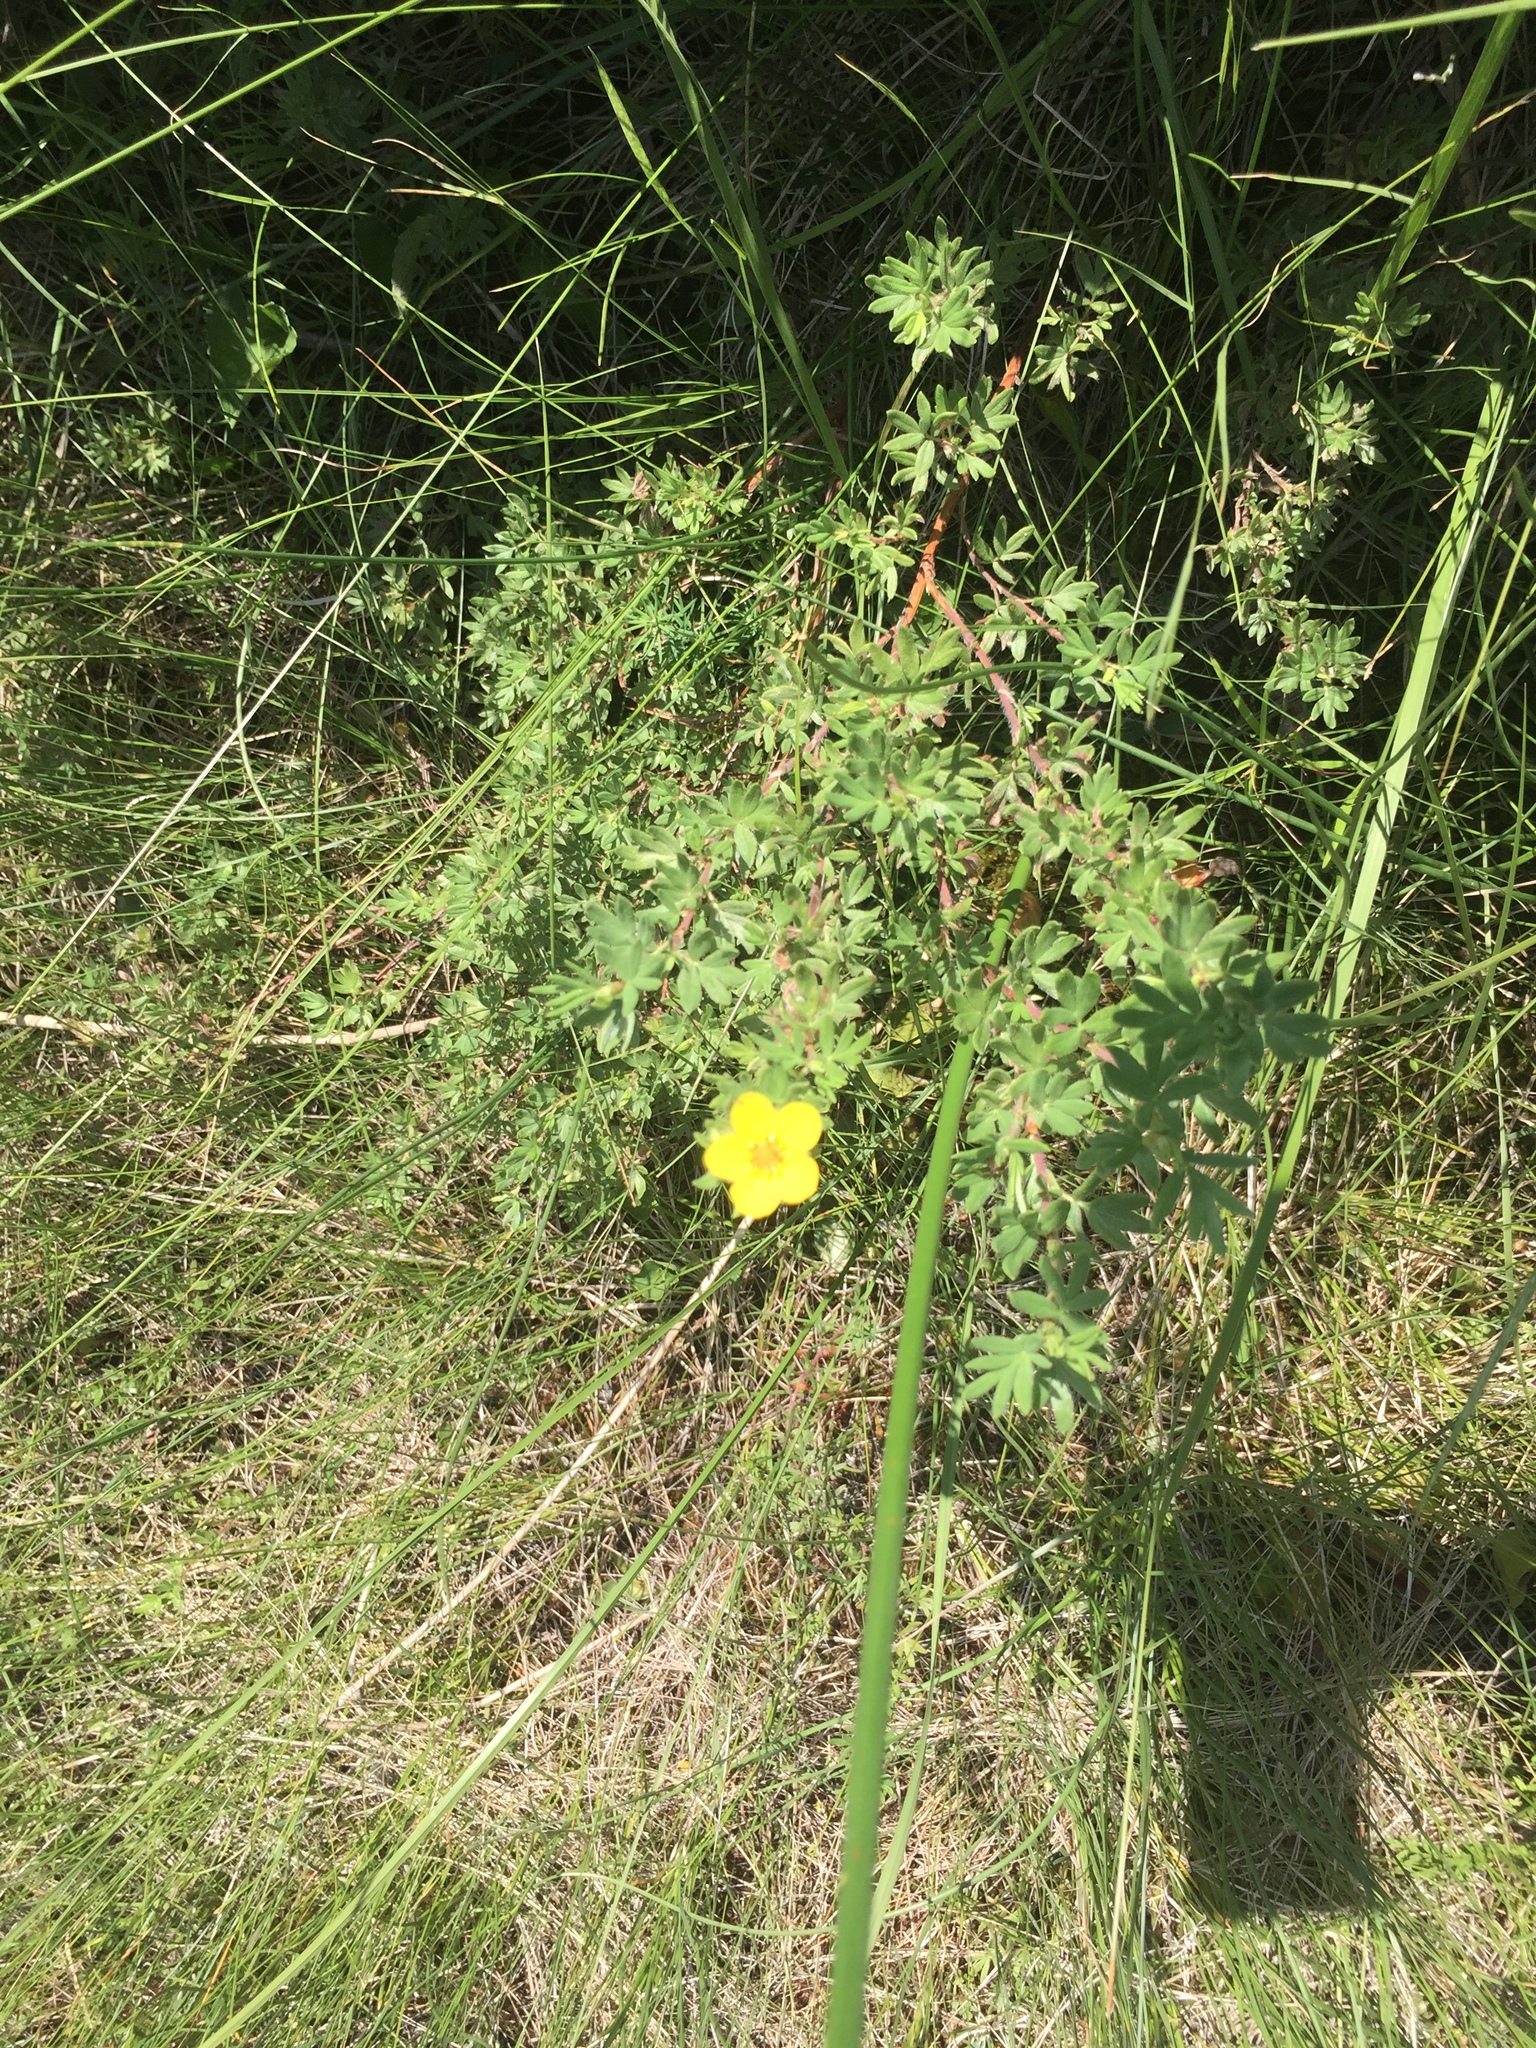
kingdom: Plantae
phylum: Tracheophyta
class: Magnoliopsida
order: Rosales
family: Rosaceae
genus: Dasiphora
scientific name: Dasiphora fruticosa
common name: Shrubby cinquefoil
